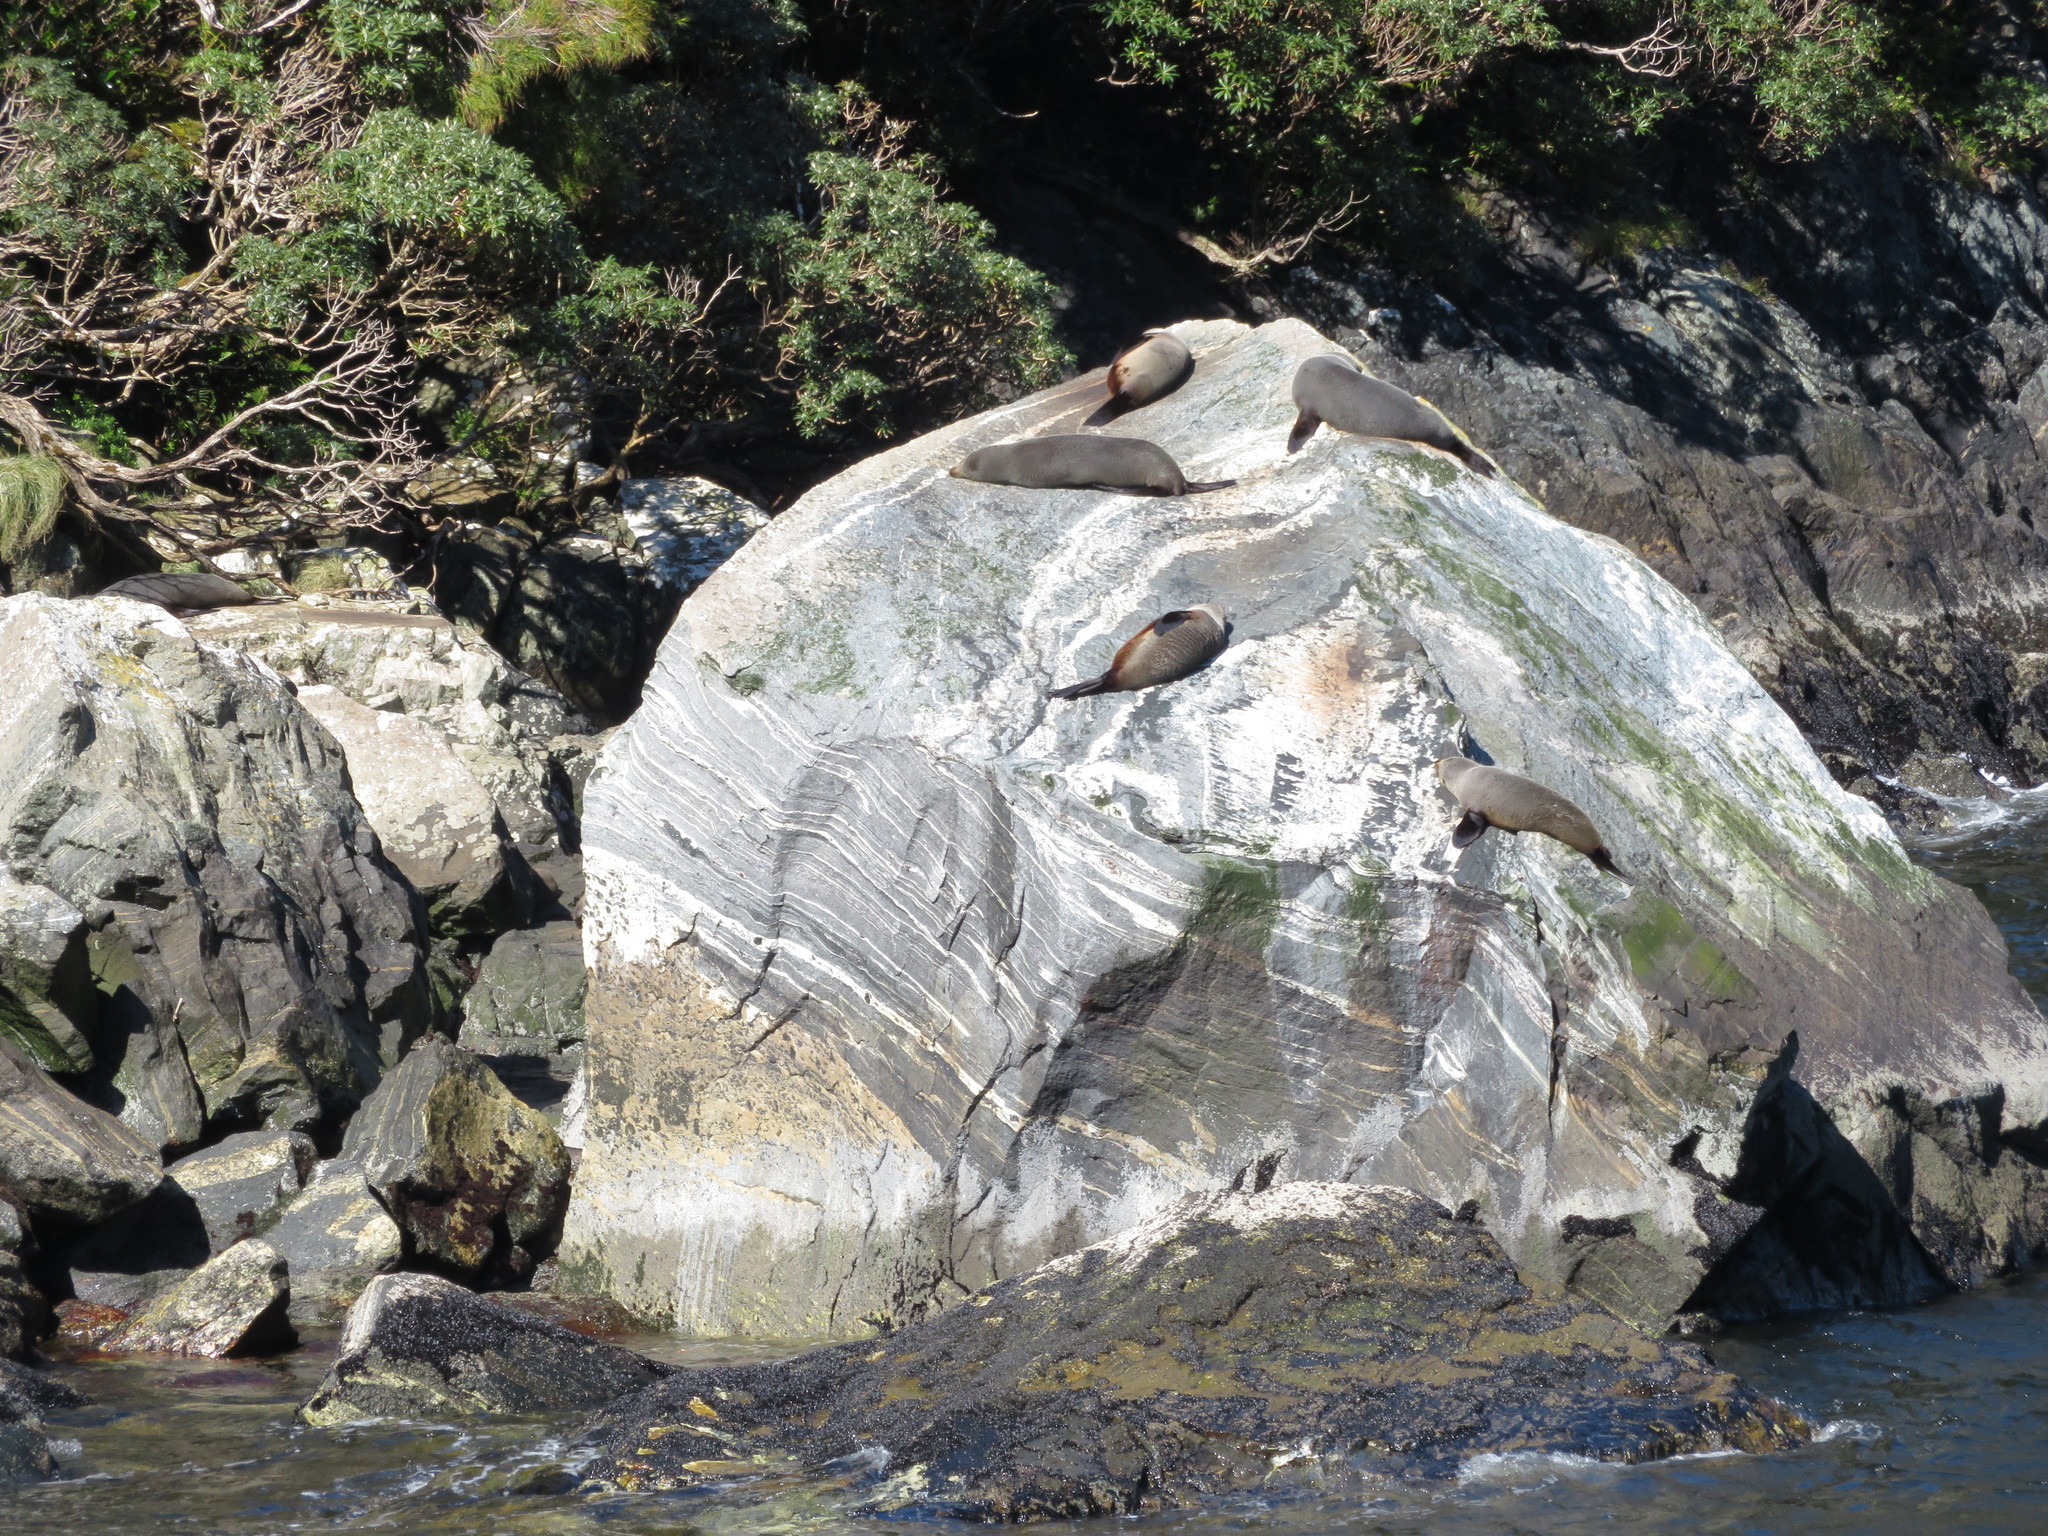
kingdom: Animalia
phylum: Chordata
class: Mammalia
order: Carnivora
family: Otariidae
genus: Arctocephalus
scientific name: Arctocephalus forsteri
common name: New zealand fur seal
